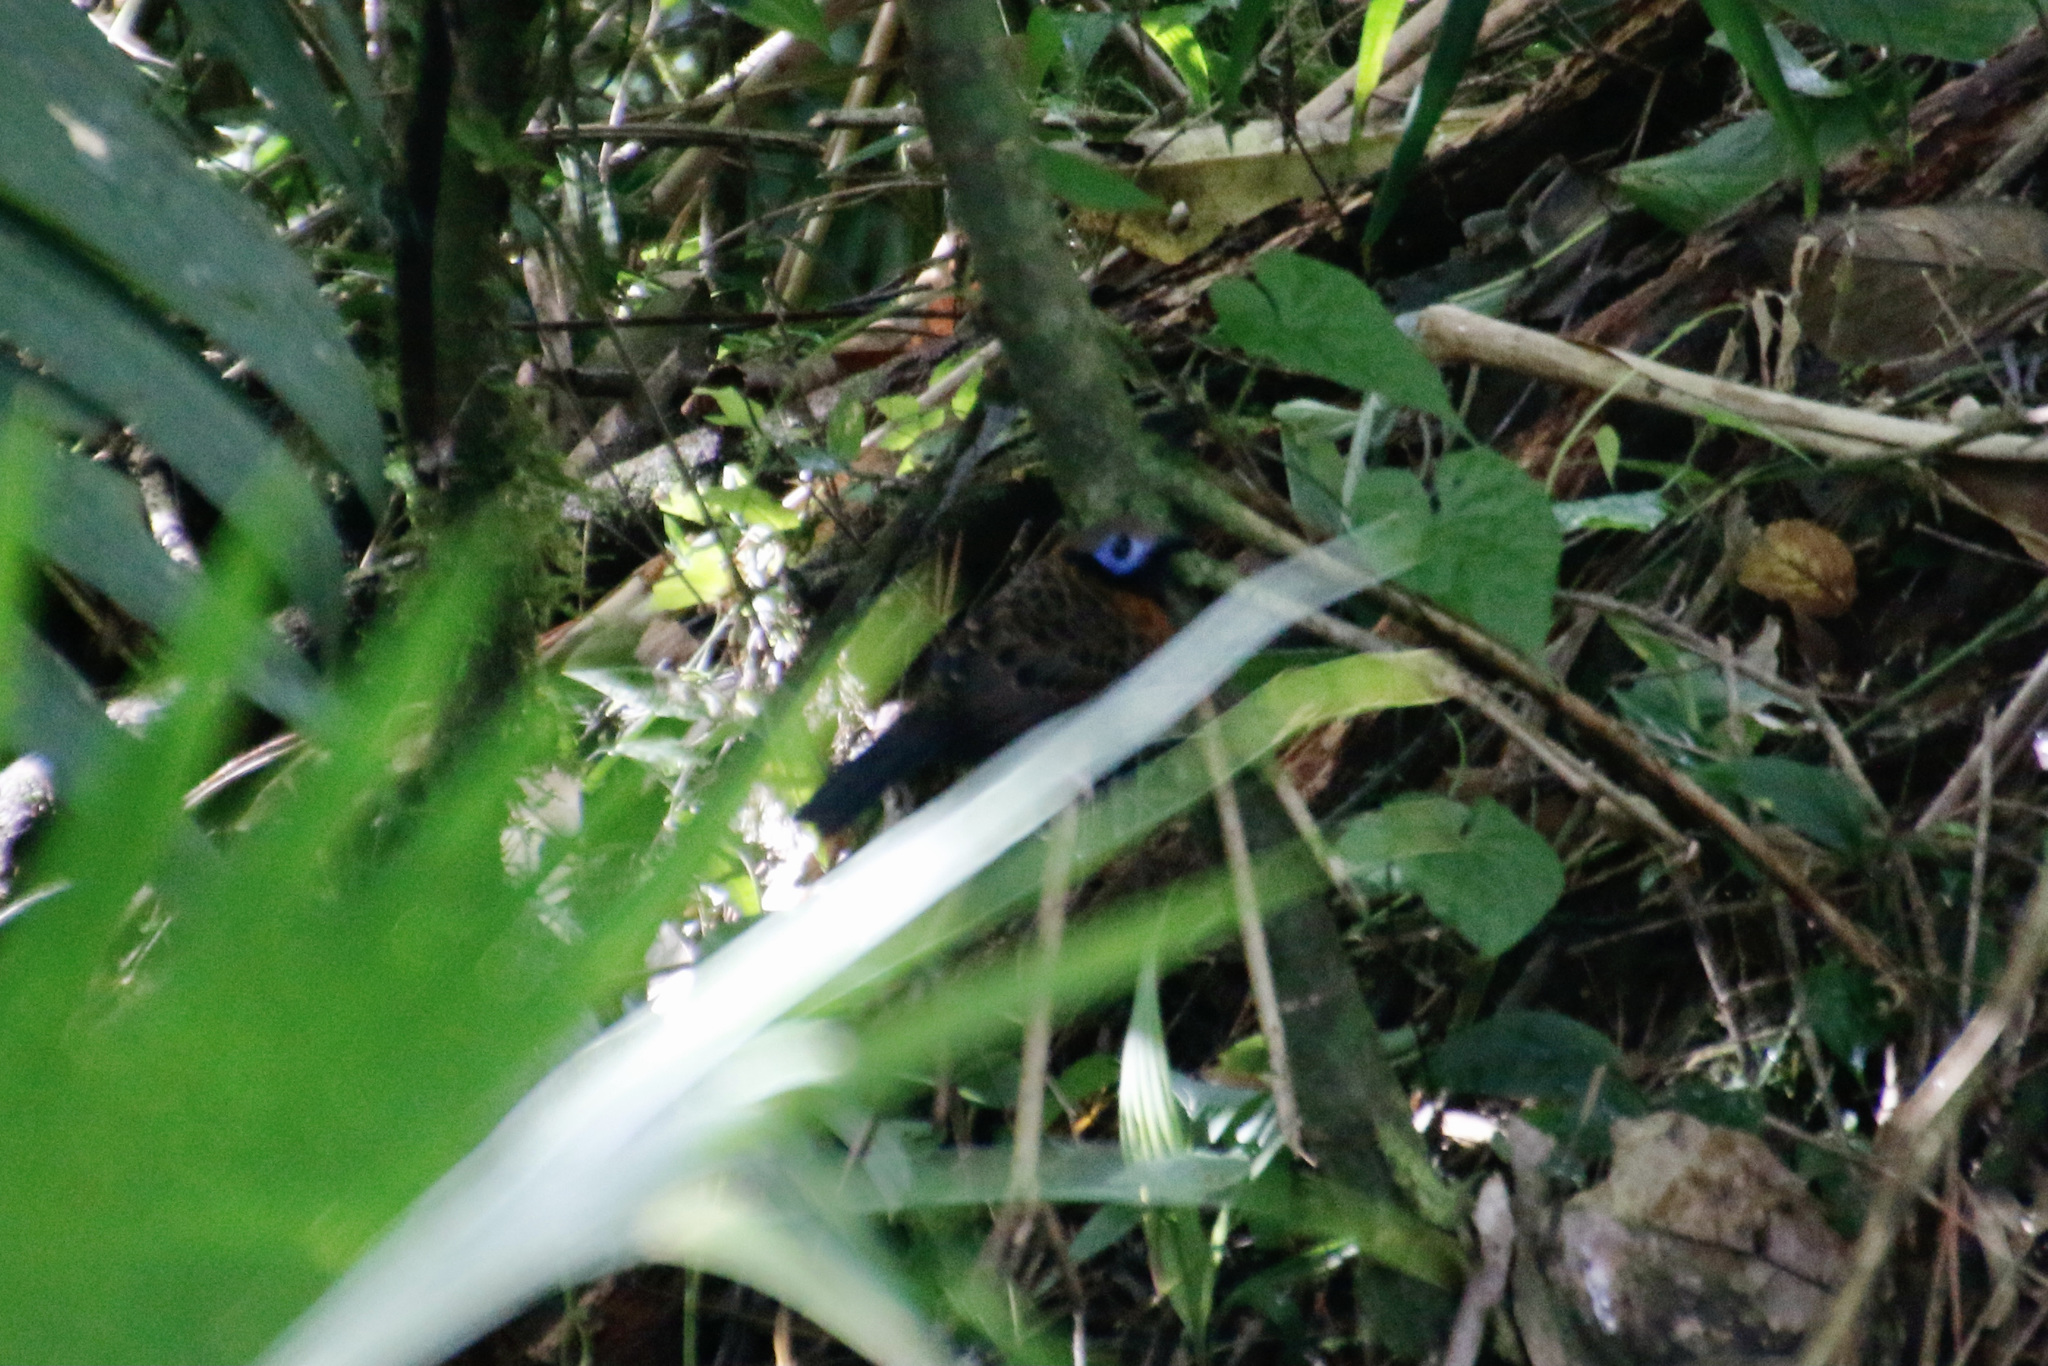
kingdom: Animalia
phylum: Chordata
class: Aves
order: Passeriformes
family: Thamnophilidae
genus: Phaenostictus
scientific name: Phaenostictus mcleannani
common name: Ocellated antbird
